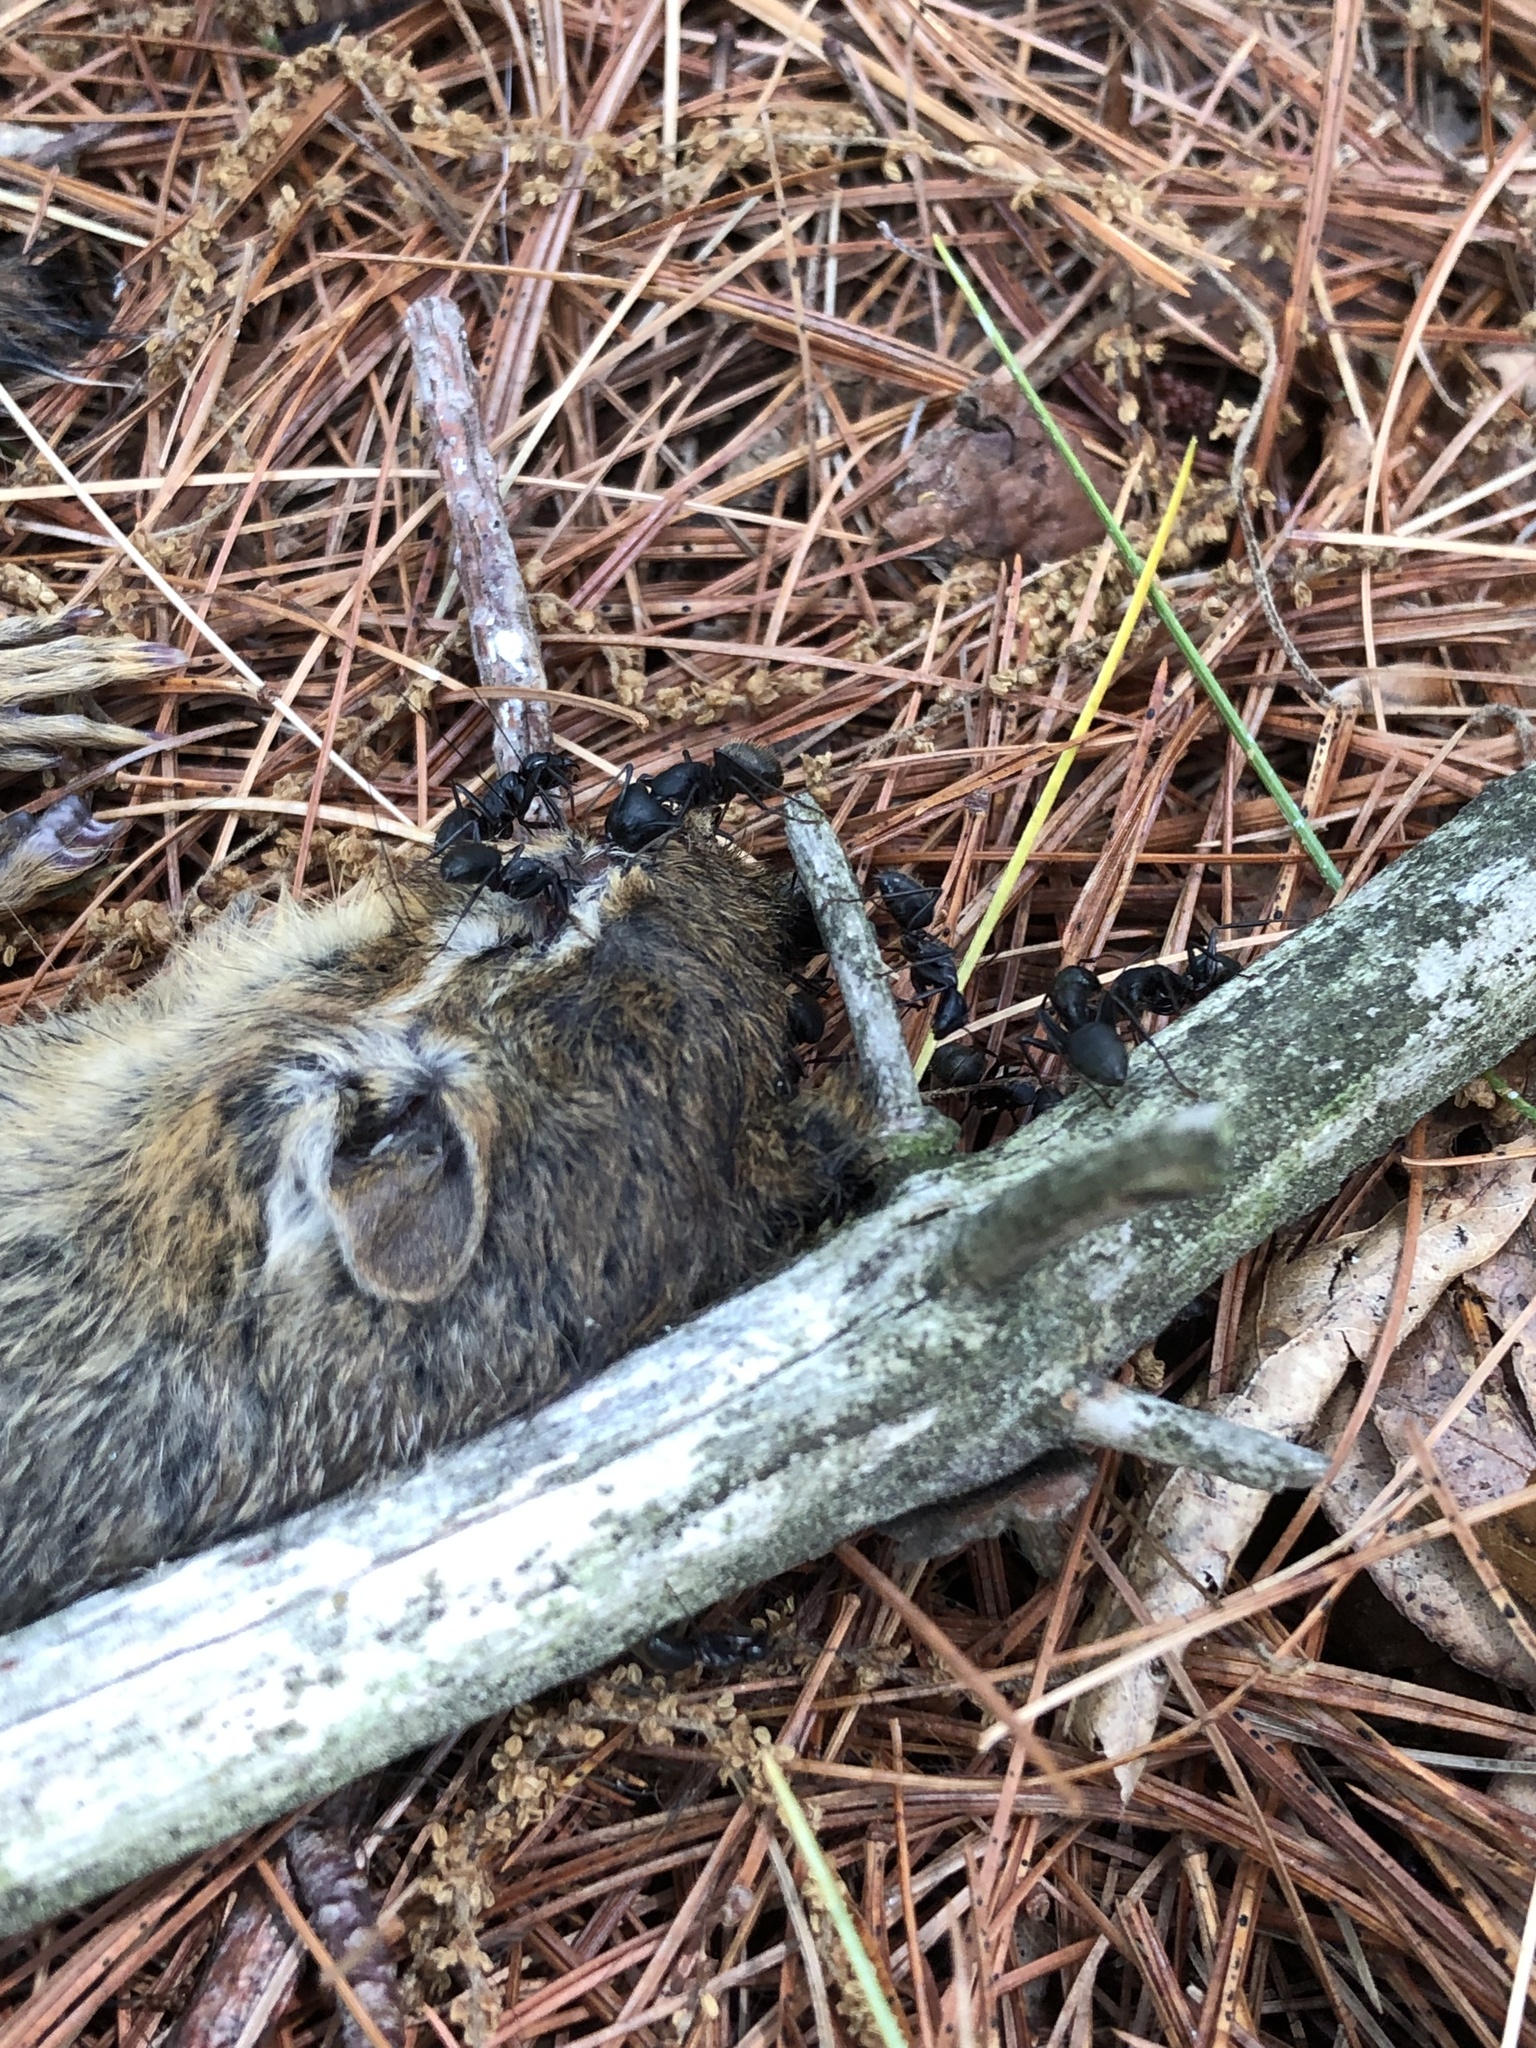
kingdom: Animalia
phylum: Arthropoda
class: Insecta
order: Hymenoptera
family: Formicidae
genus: Camponotus
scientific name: Camponotus pennsylvanicus
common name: Black carpenter ant
